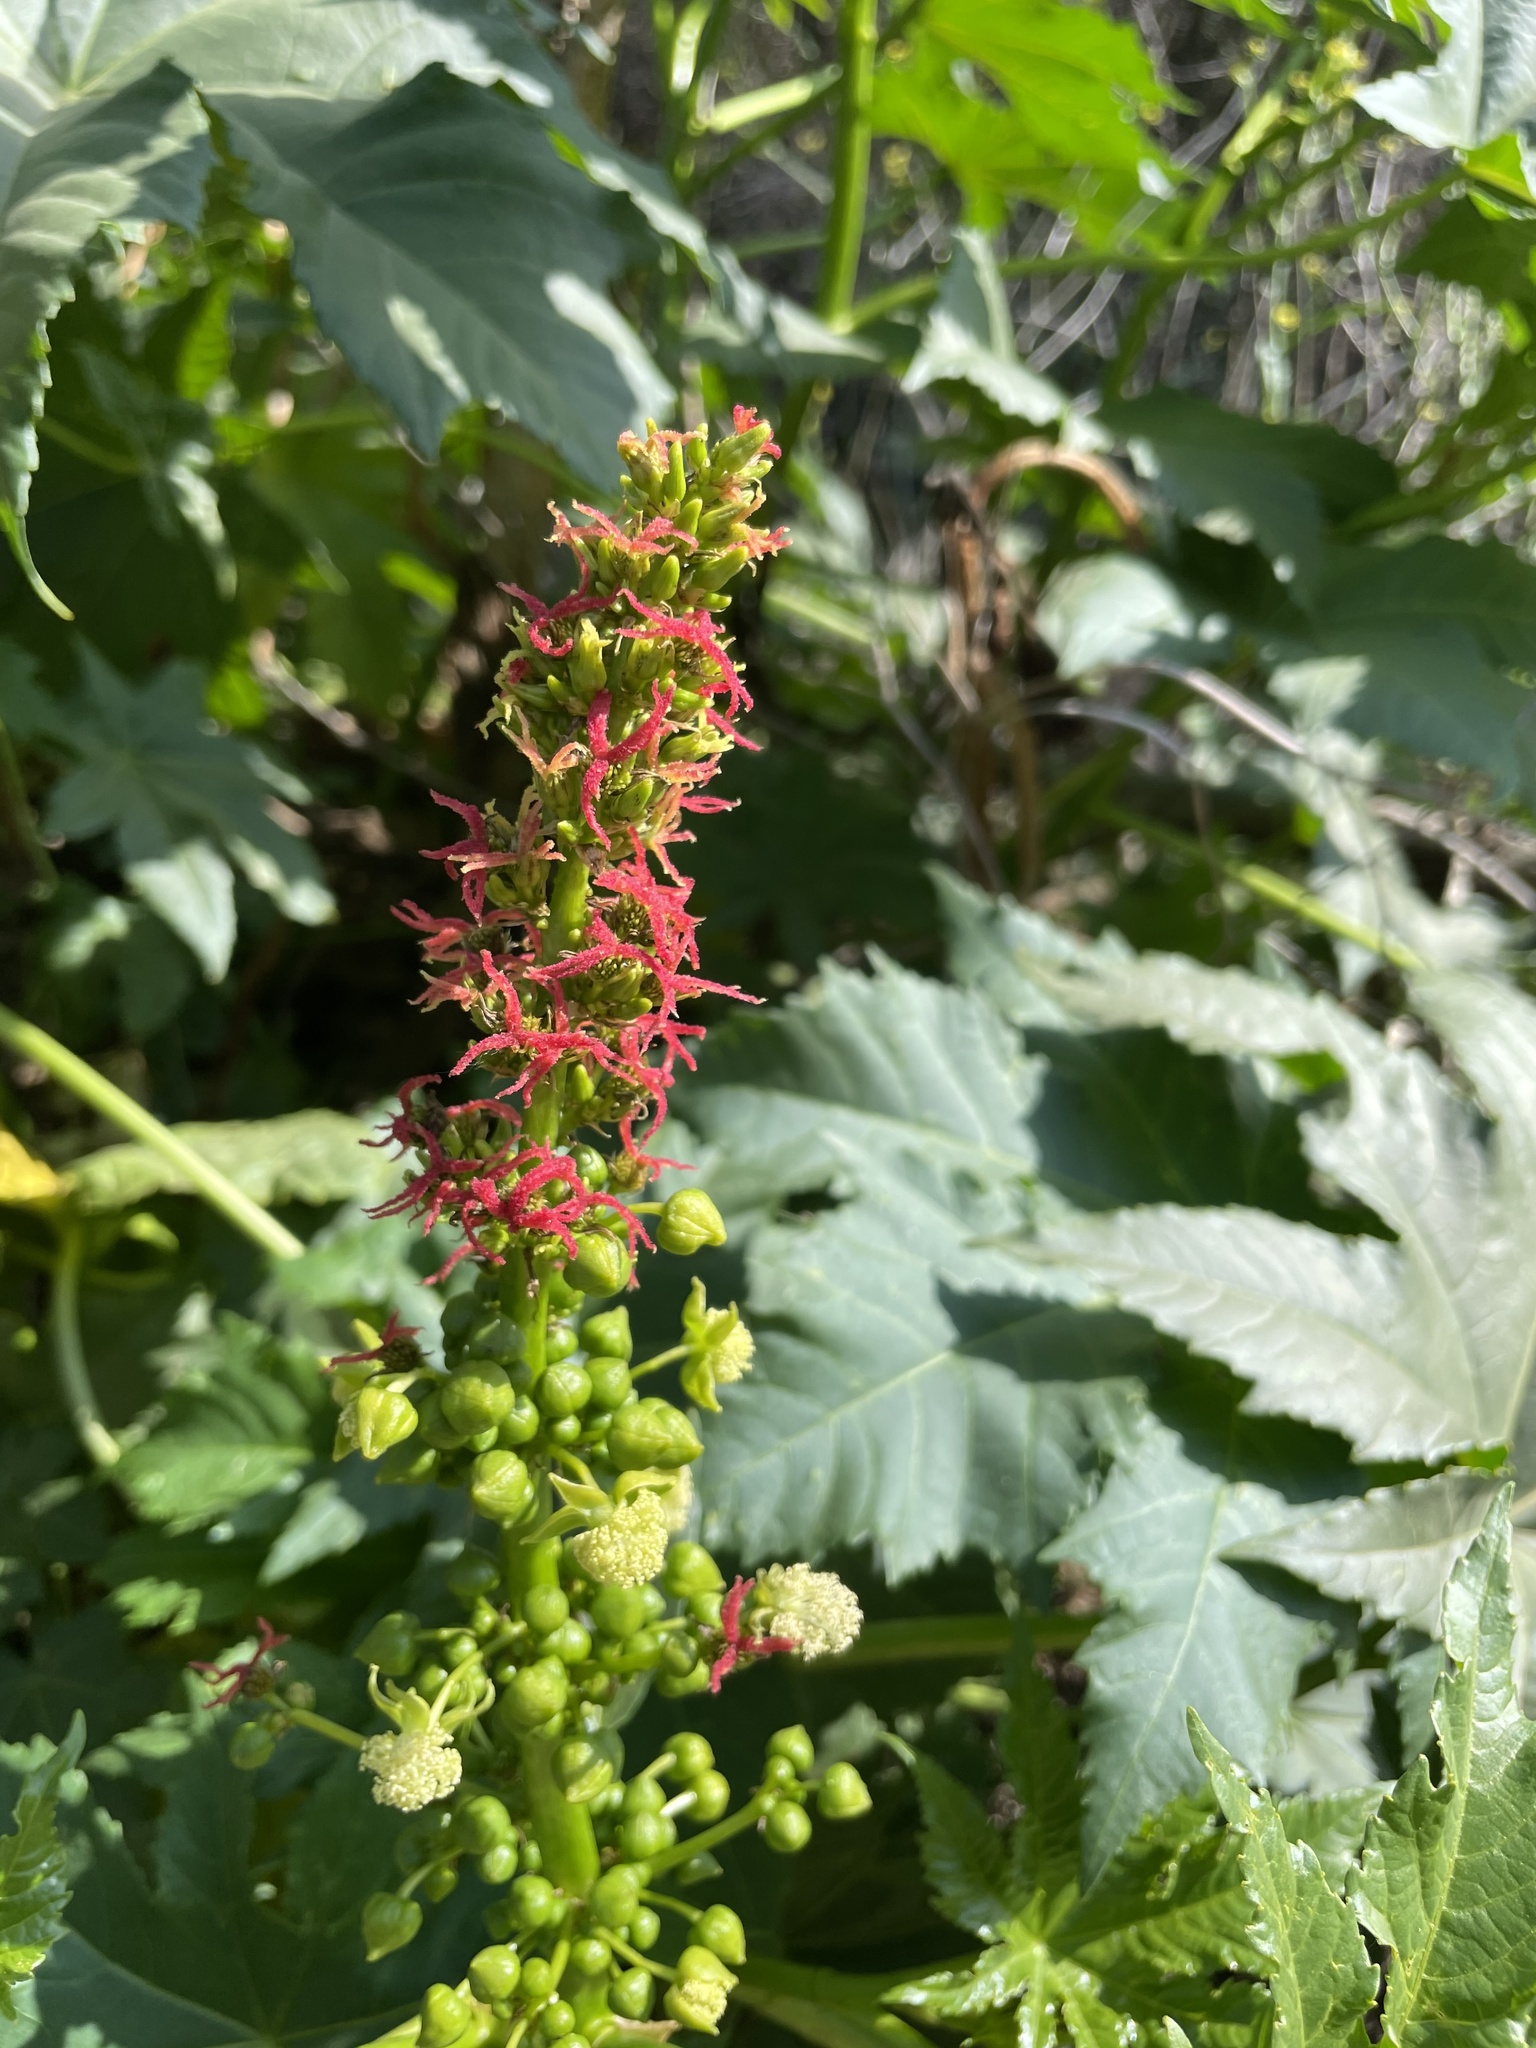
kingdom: Plantae
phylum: Tracheophyta
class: Magnoliopsida
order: Malpighiales
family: Euphorbiaceae
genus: Ricinus
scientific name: Ricinus communis
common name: Castor-oil-plant
